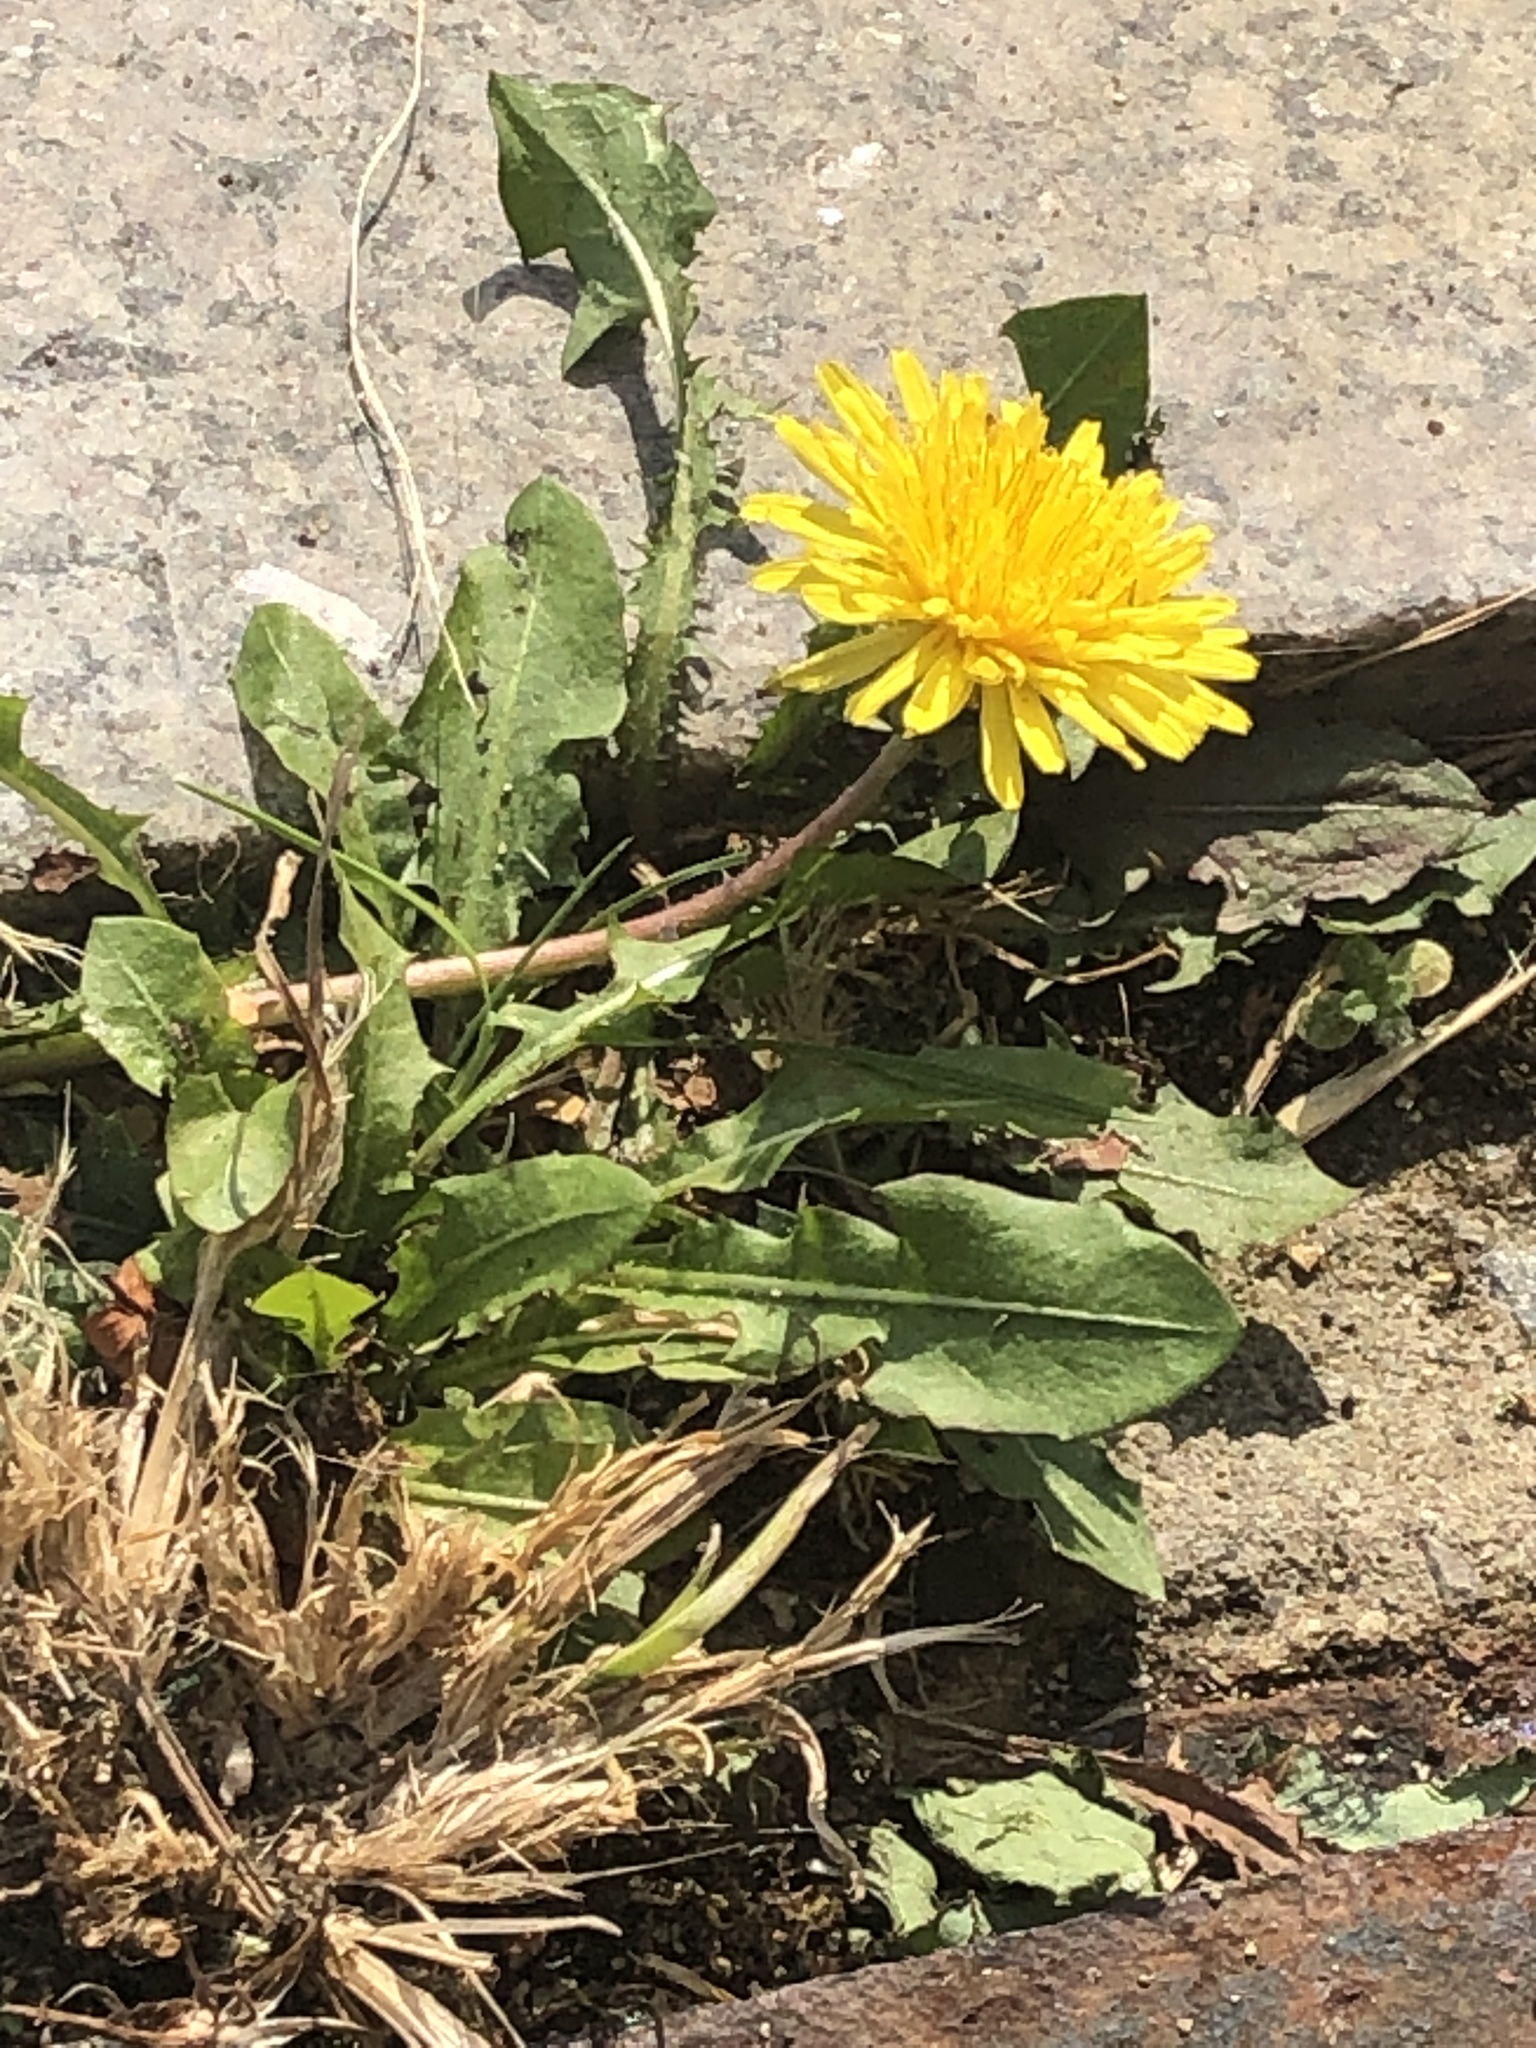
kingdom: Plantae
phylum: Tracheophyta
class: Magnoliopsida
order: Asterales
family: Asteraceae
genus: Taraxacum
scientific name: Taraxacum officinale
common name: Common dandelion
